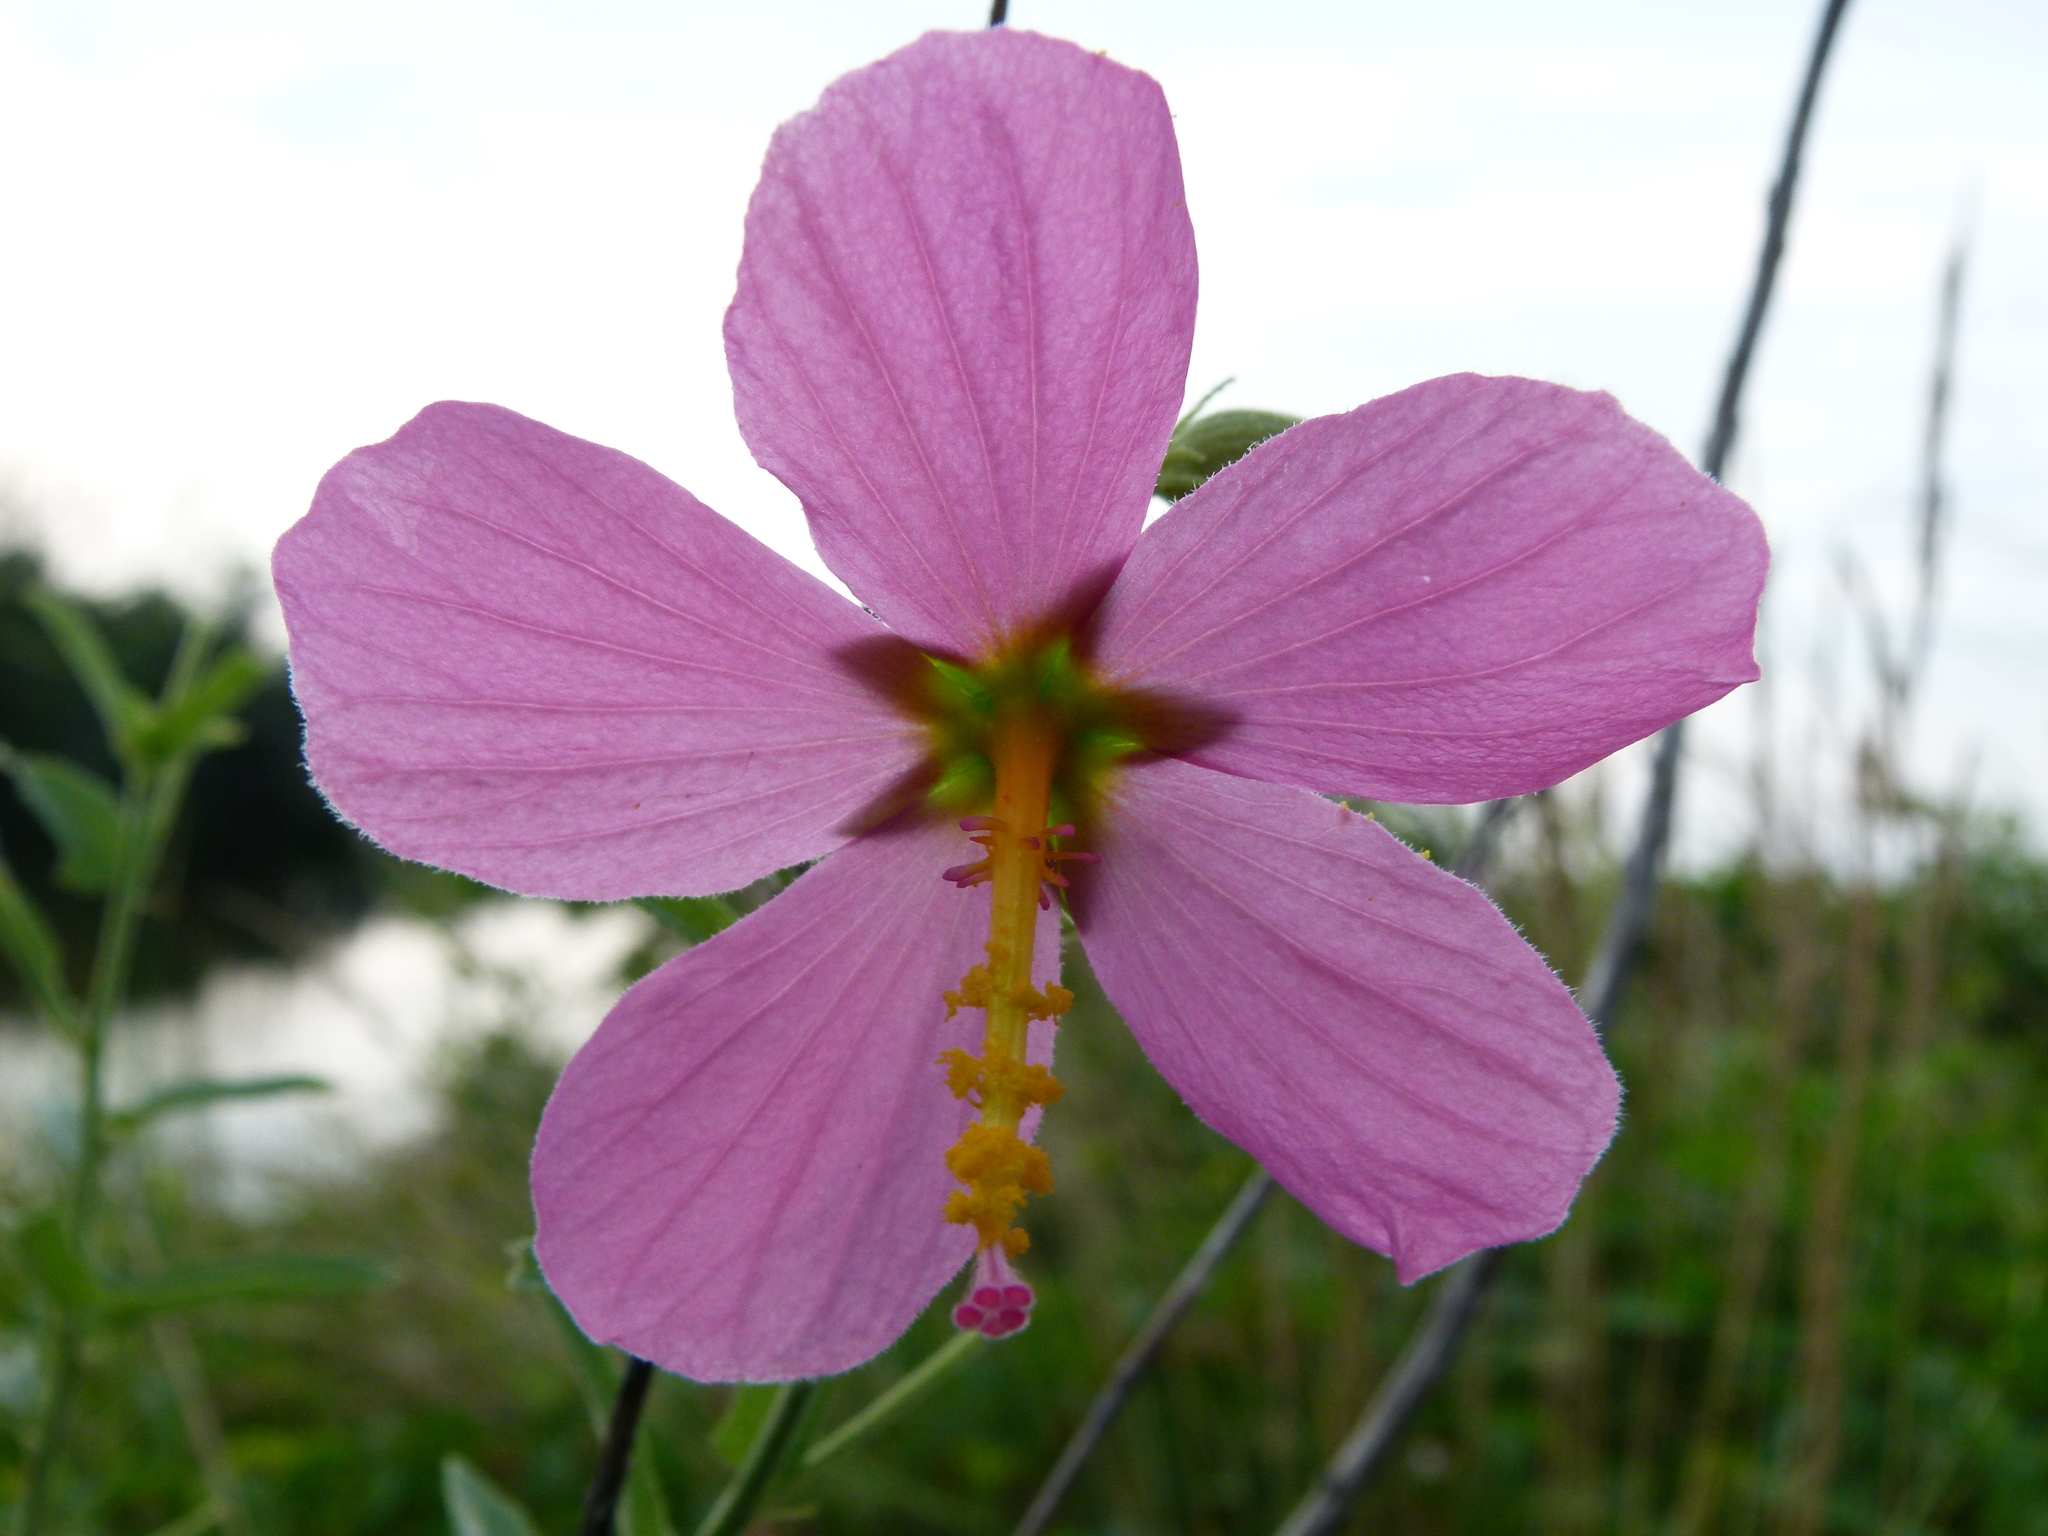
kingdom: Plantae
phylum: Tracheophyta
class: Magnoliopsida
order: Malvales
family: Malvaceae
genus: Kosteletzkya
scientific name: Kosteletzkya pentacarpos
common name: Virginia saltmarsh mallow
